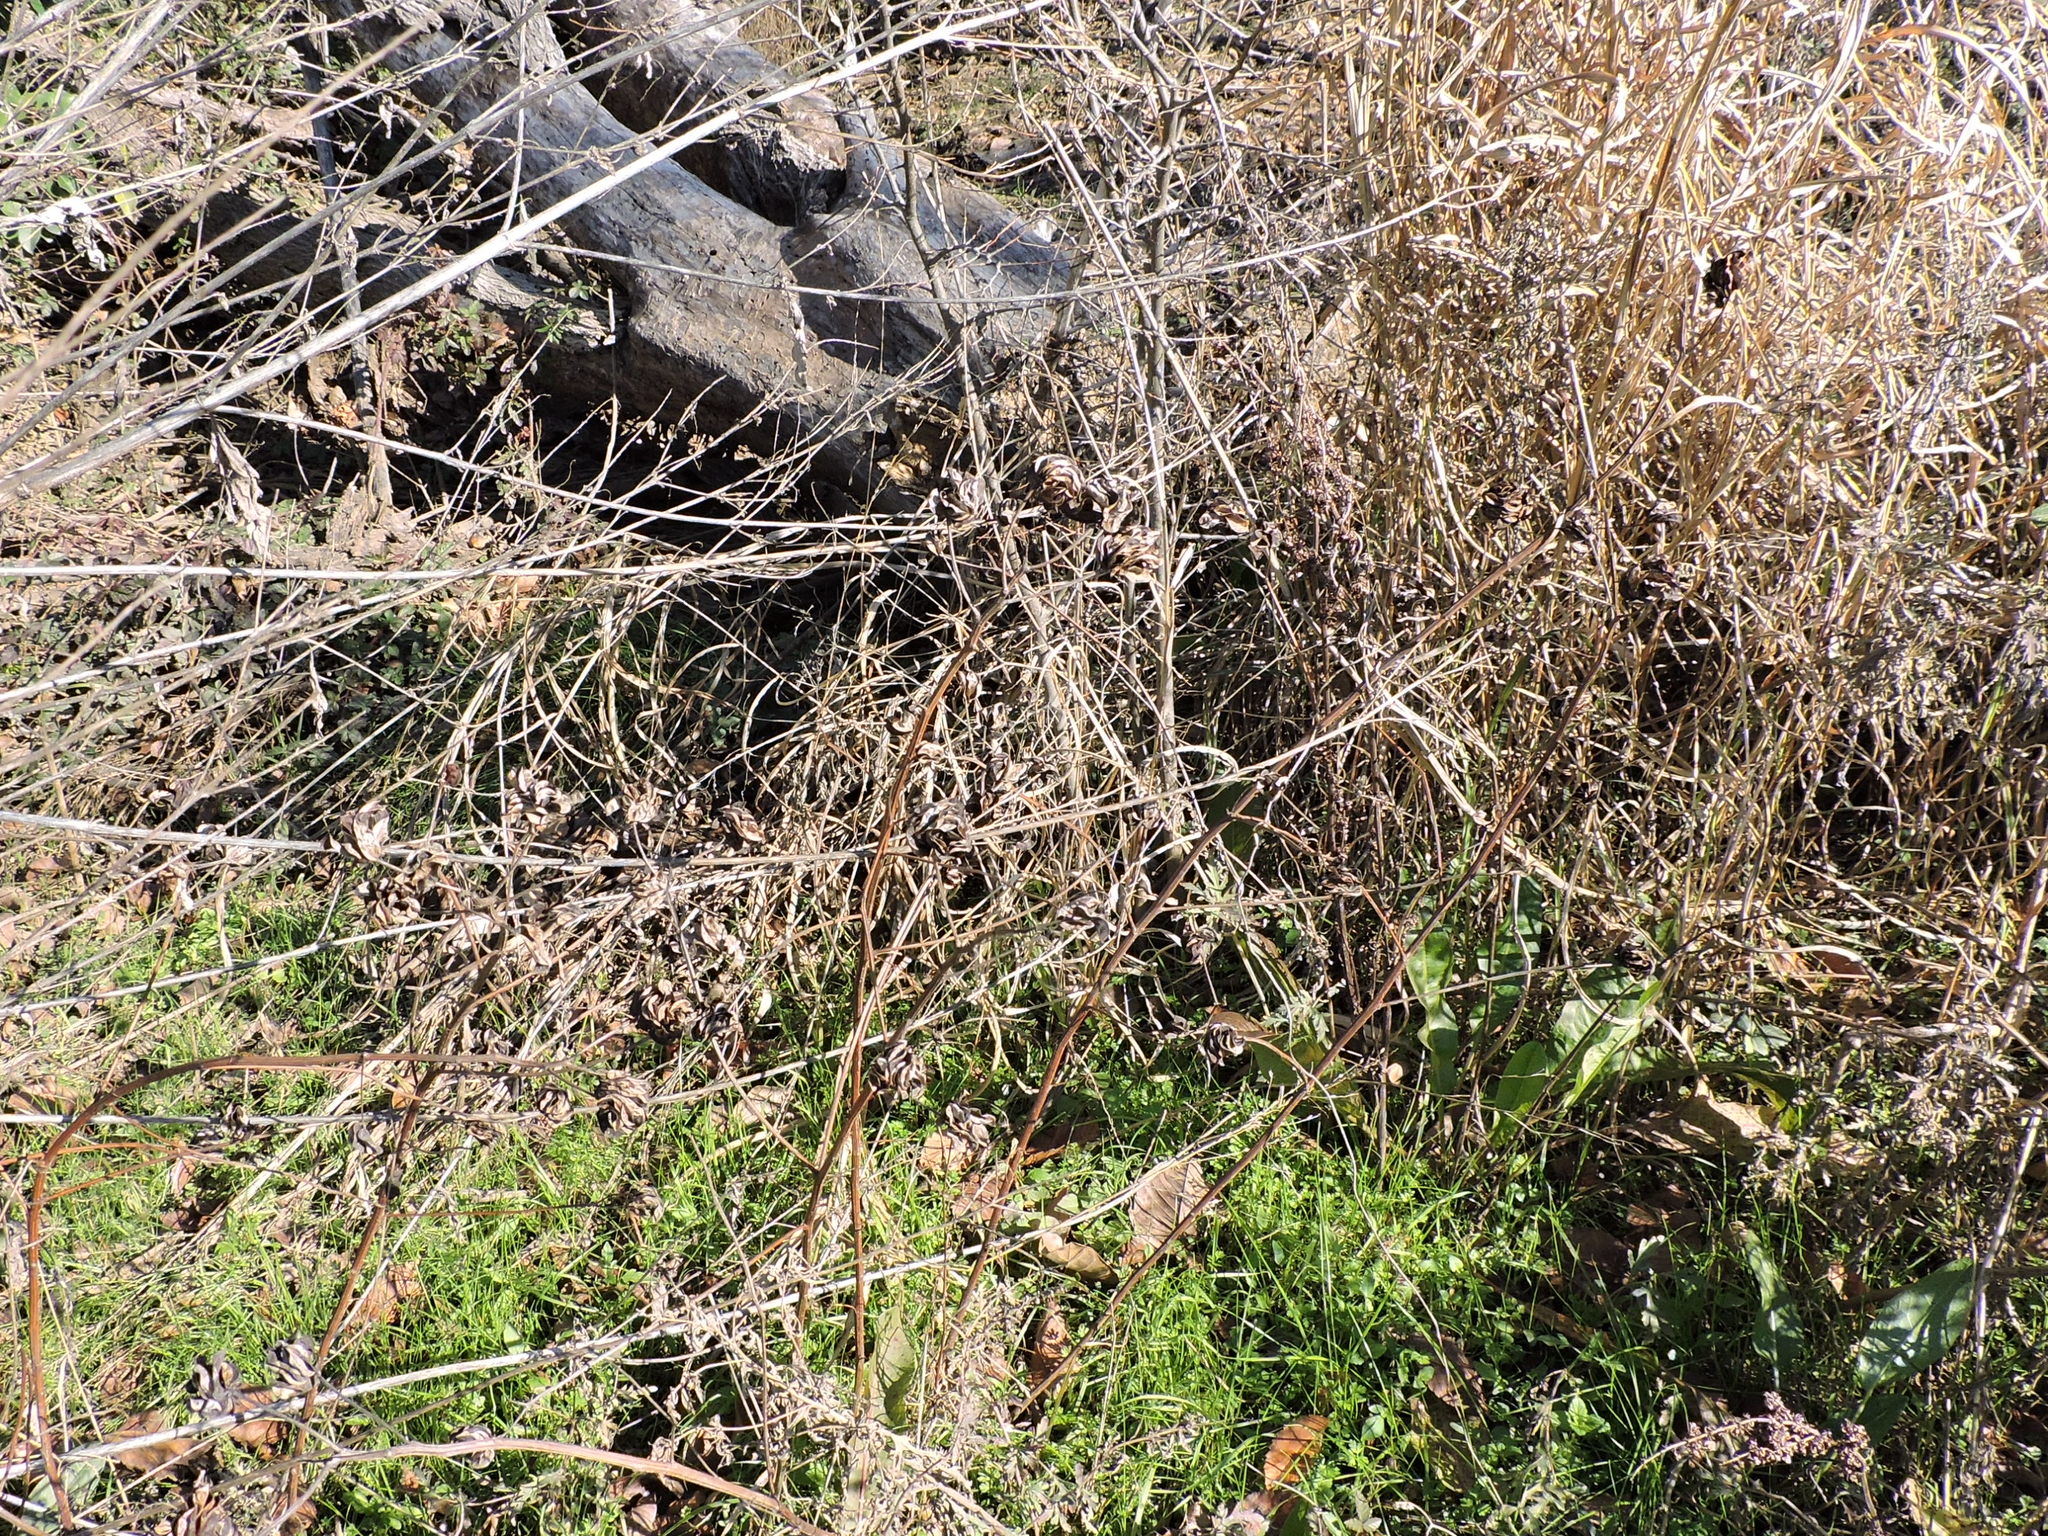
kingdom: Plantae
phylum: Tracheophyta
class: Magnoliopsida
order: Fabales
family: Fabaceae
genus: Desmanthus
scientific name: Desmanthus illinoensis
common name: Illinois bundle-flower
